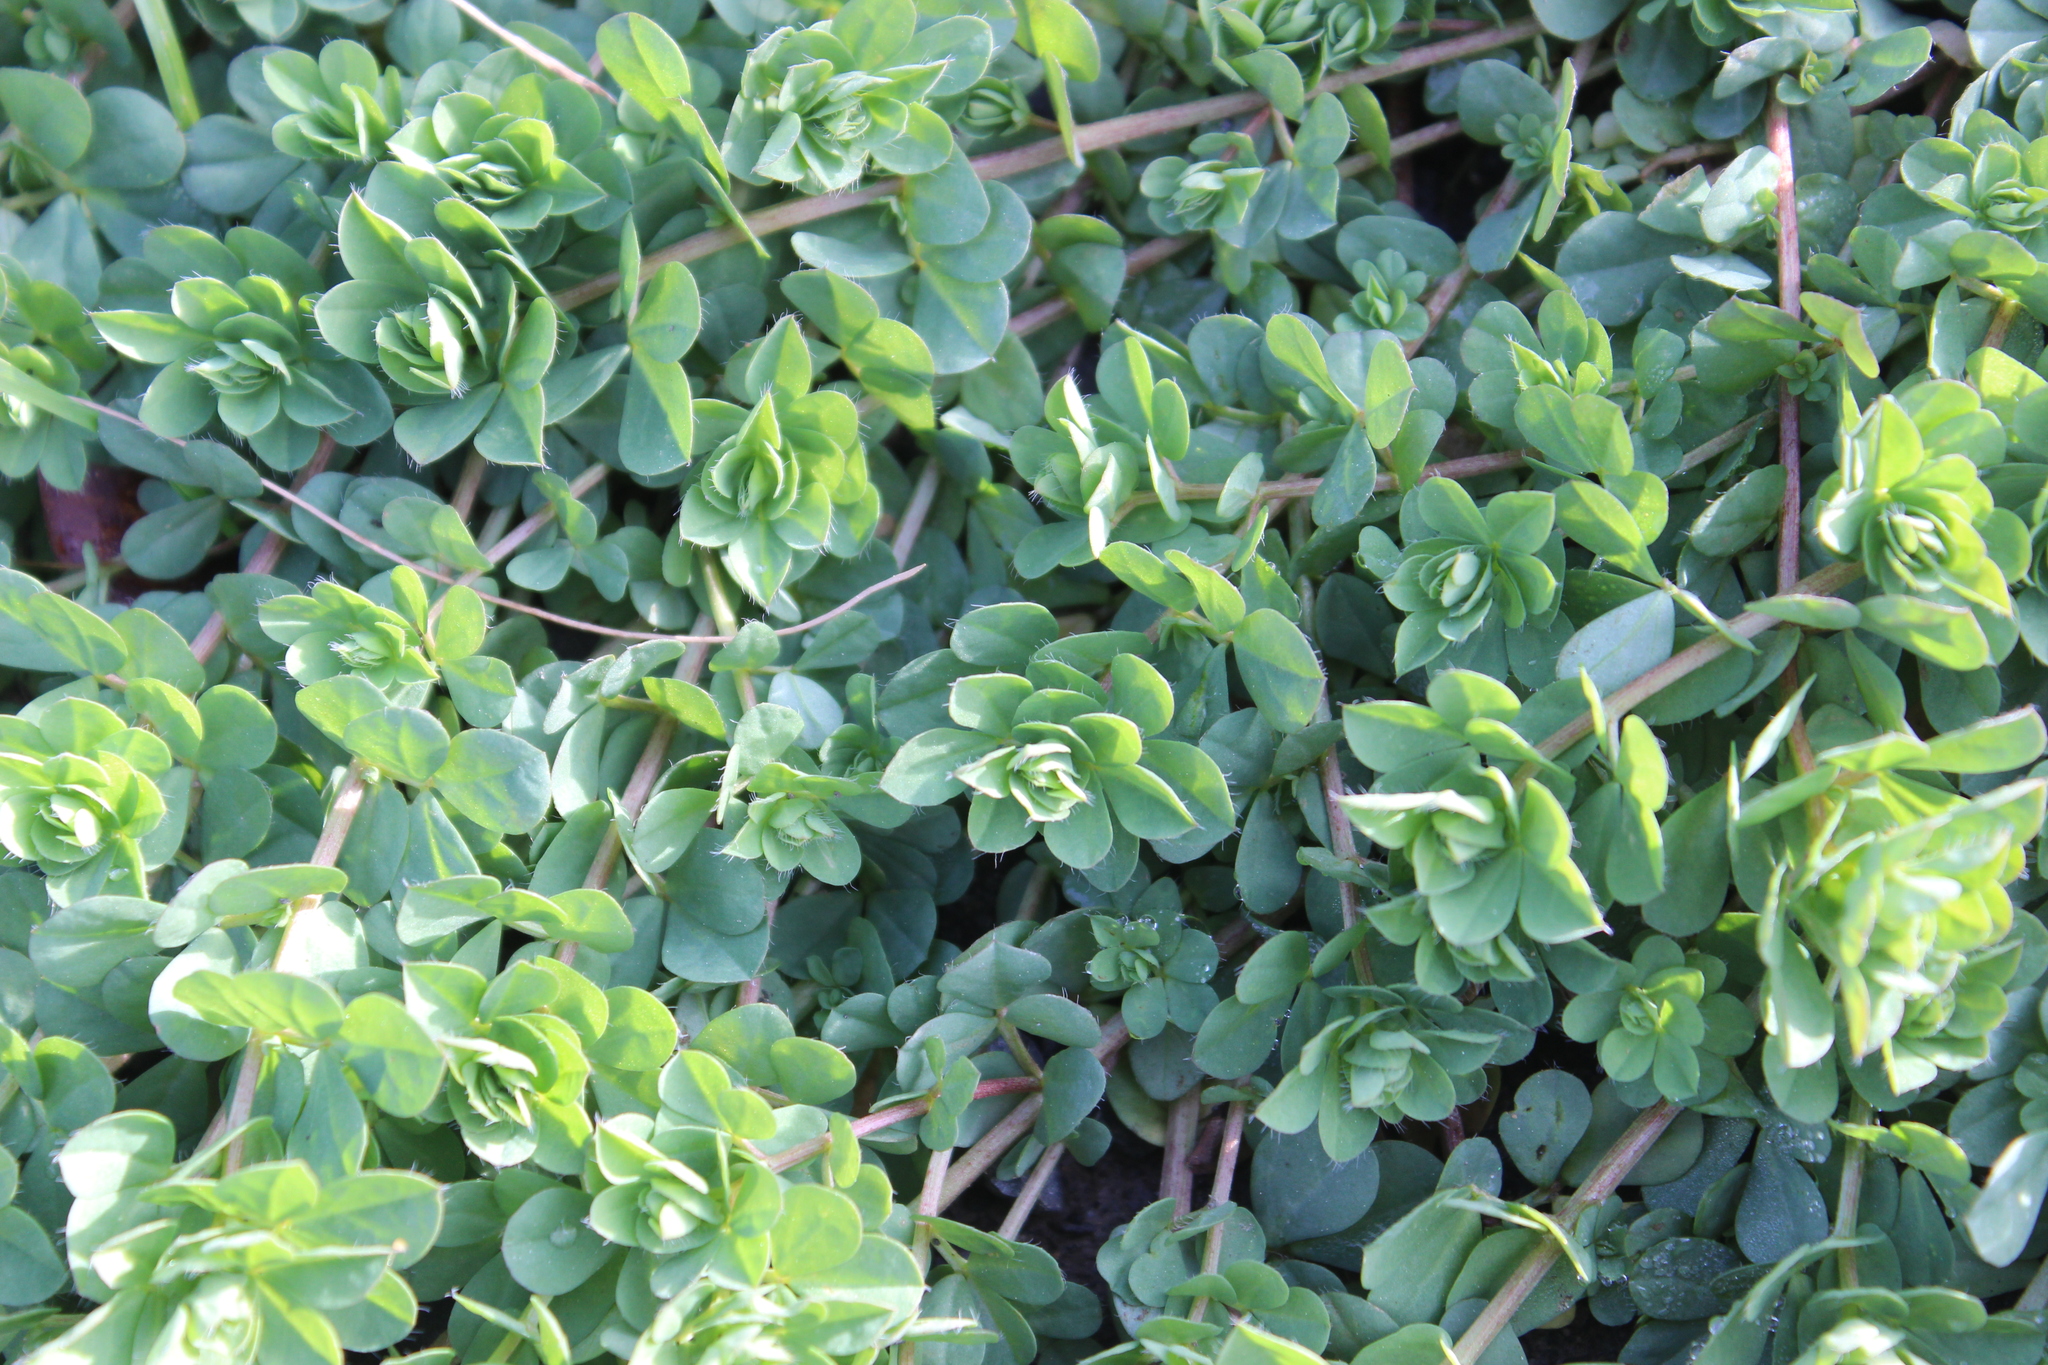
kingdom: Plantae
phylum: Tracheophyta
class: Magnoliopsida
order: Fabales
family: Fabaceae
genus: Lotus
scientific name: Lotus pedunculatus
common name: Greater birdsfoot-trefoil
